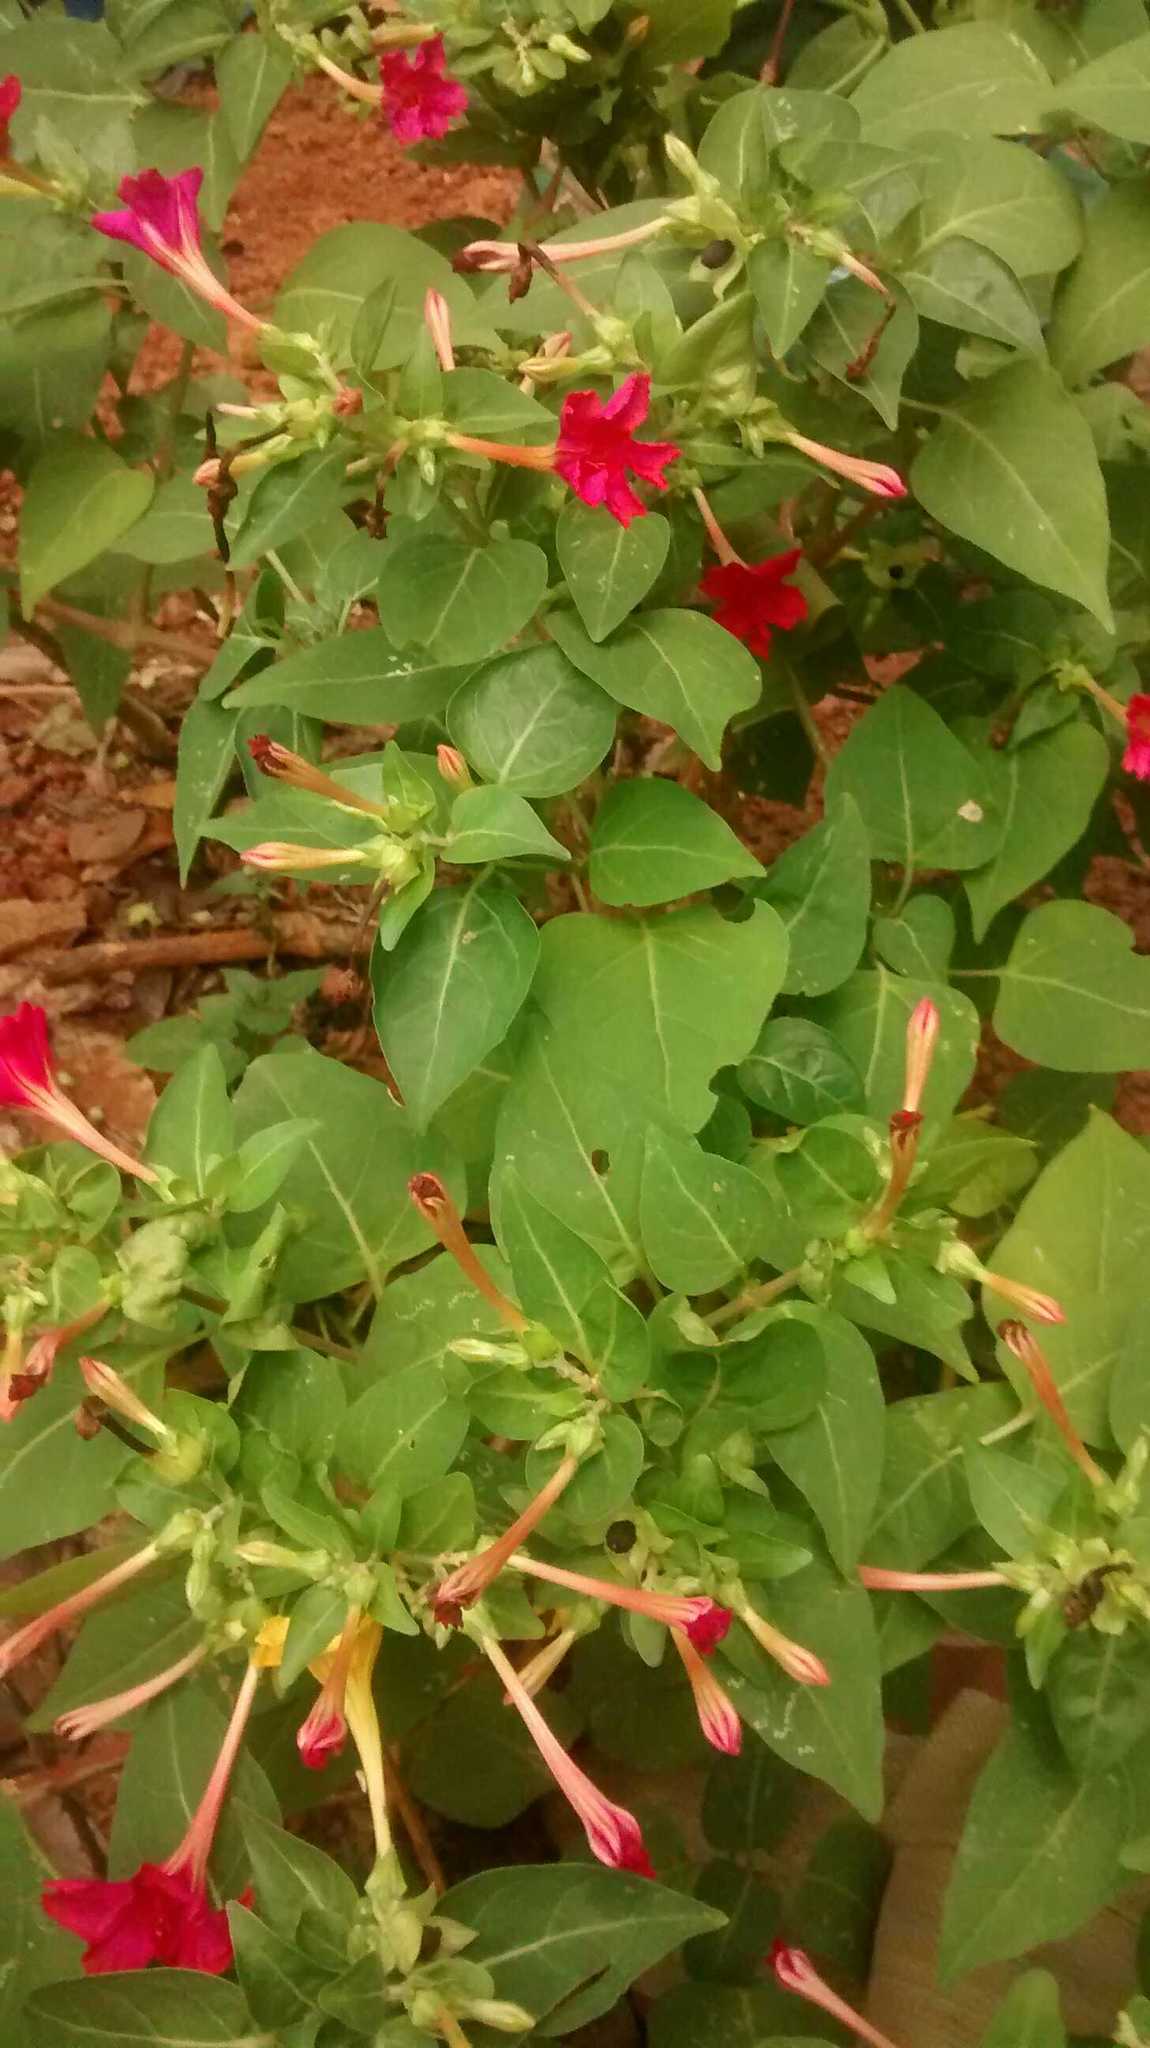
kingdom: Plantae
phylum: Tracheophyta
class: Magnoliopsida
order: Caryophyllales
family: Nyctaginaceae
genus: Mirabilis
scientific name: Mirabilis jalapa
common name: Marvel-of-peru
